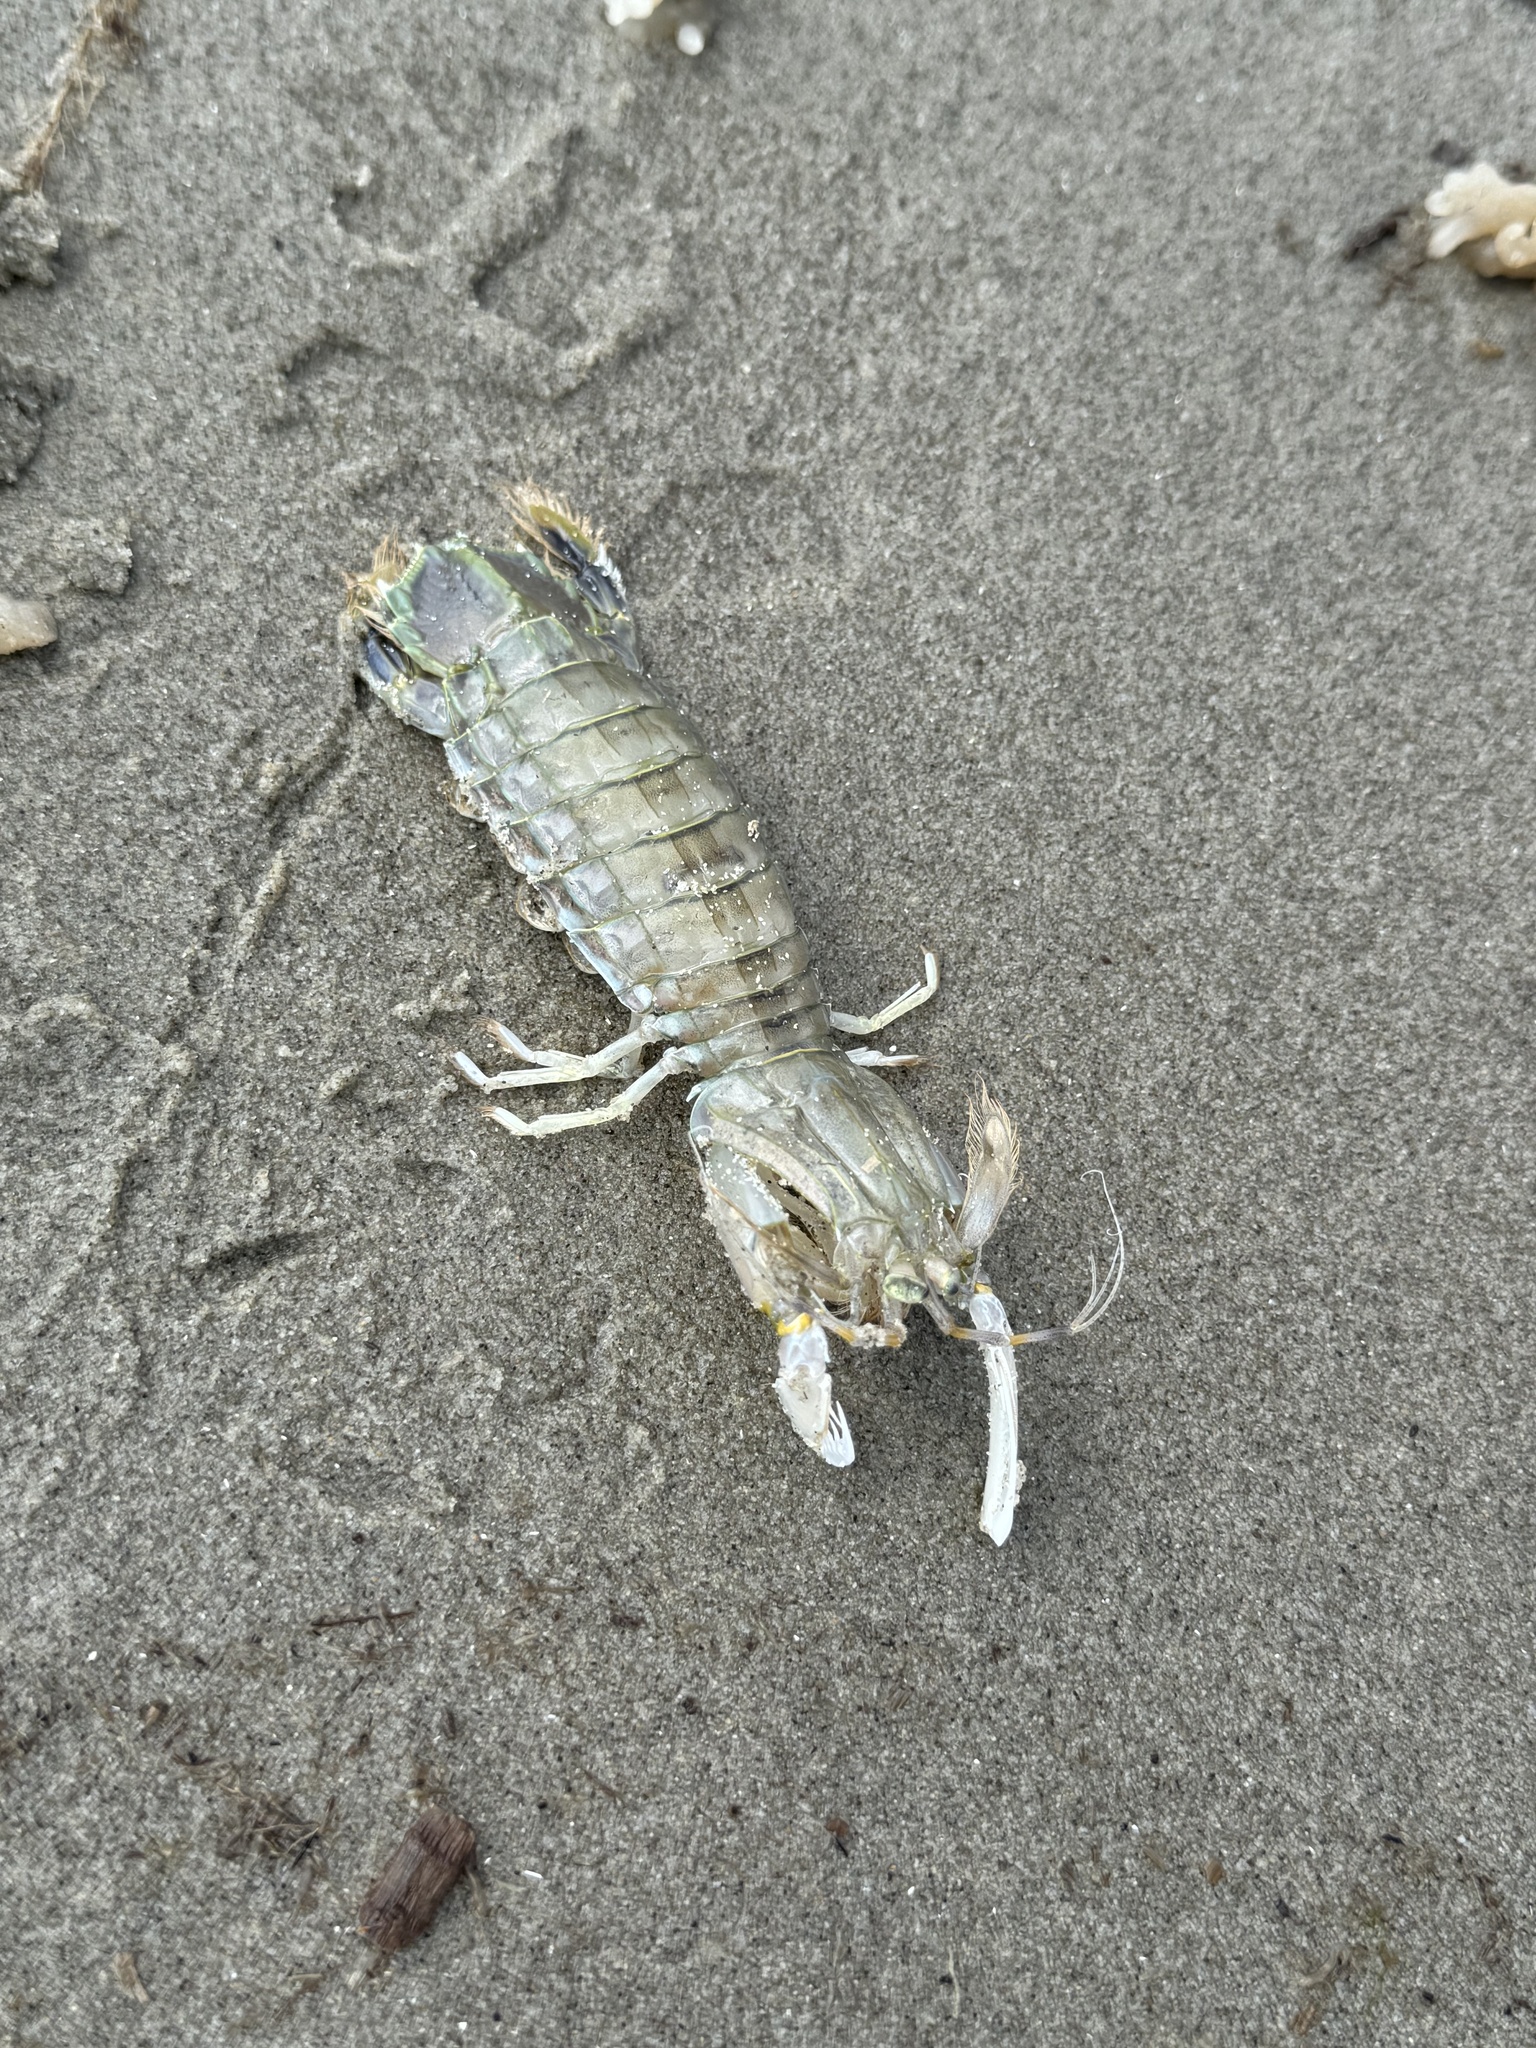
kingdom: Animalia
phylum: Arthropoda
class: Malacostraca
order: Stomatopoda
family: Squillidae
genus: Squilla
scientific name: Squilla empusa
